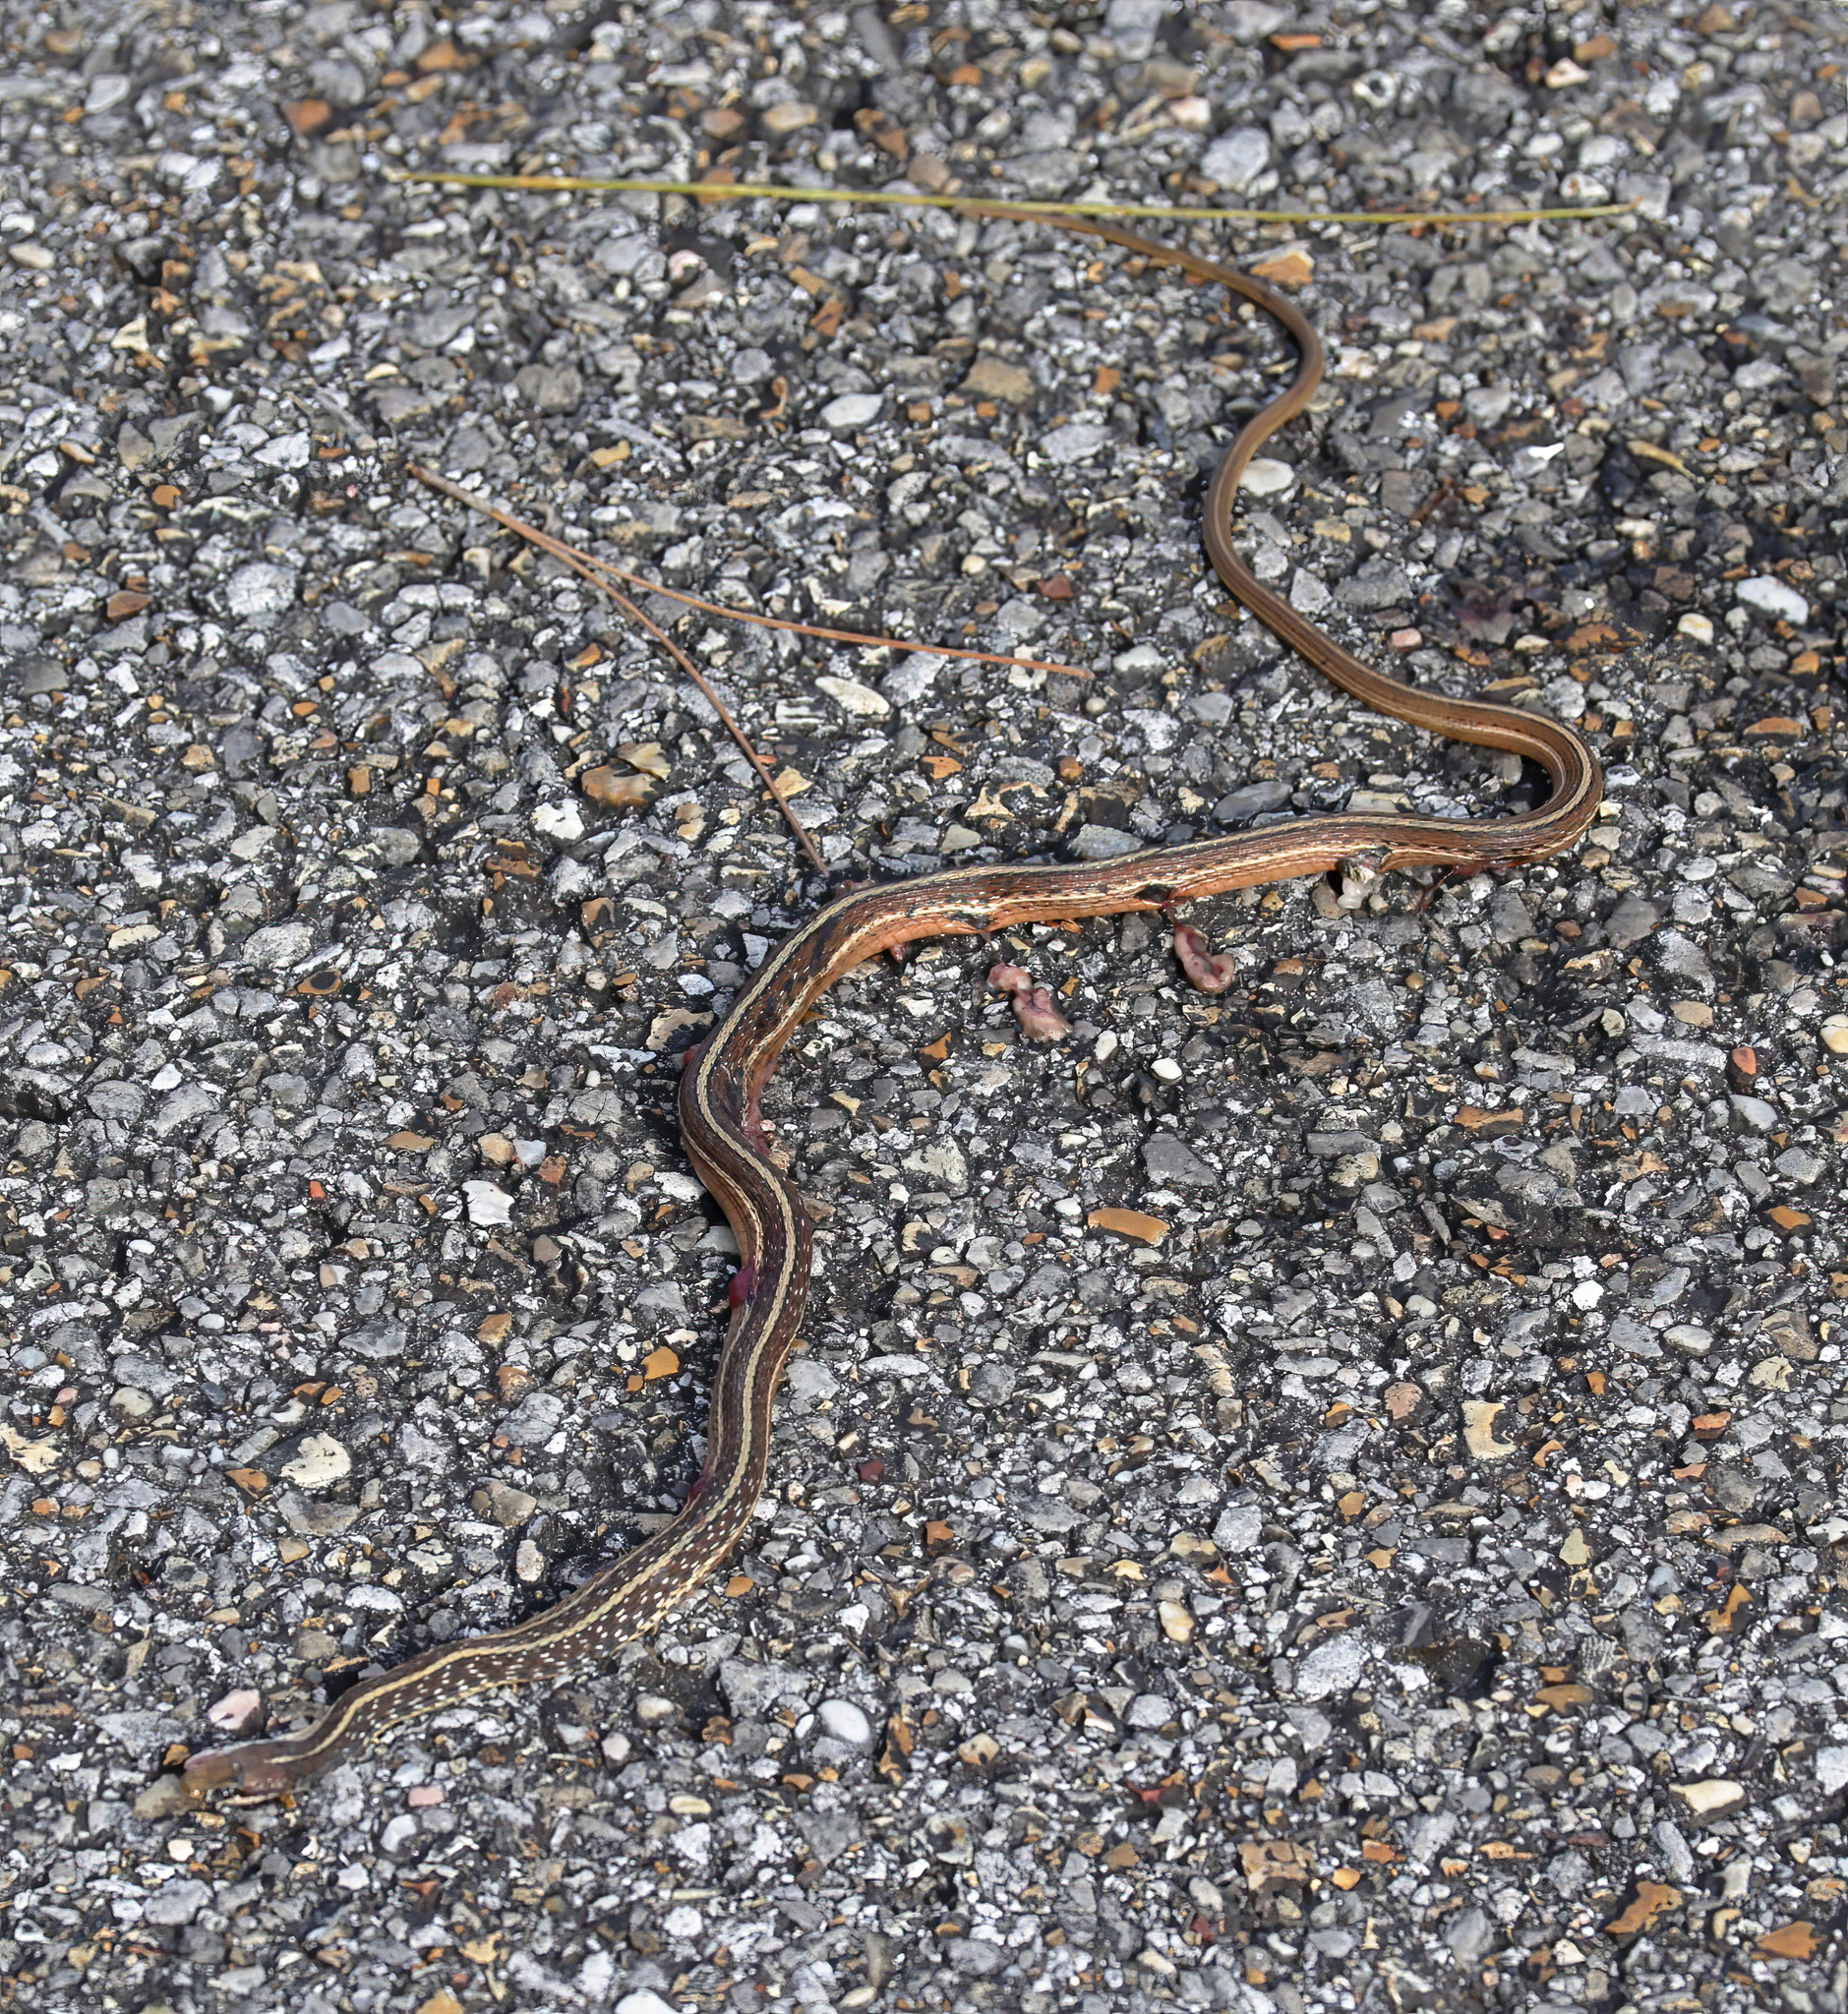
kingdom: Animalia
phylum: Chordata
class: Squamata
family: Colubridae
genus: Thamnophis
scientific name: Thamnophis saurita
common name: Eastern ribbonsnake
